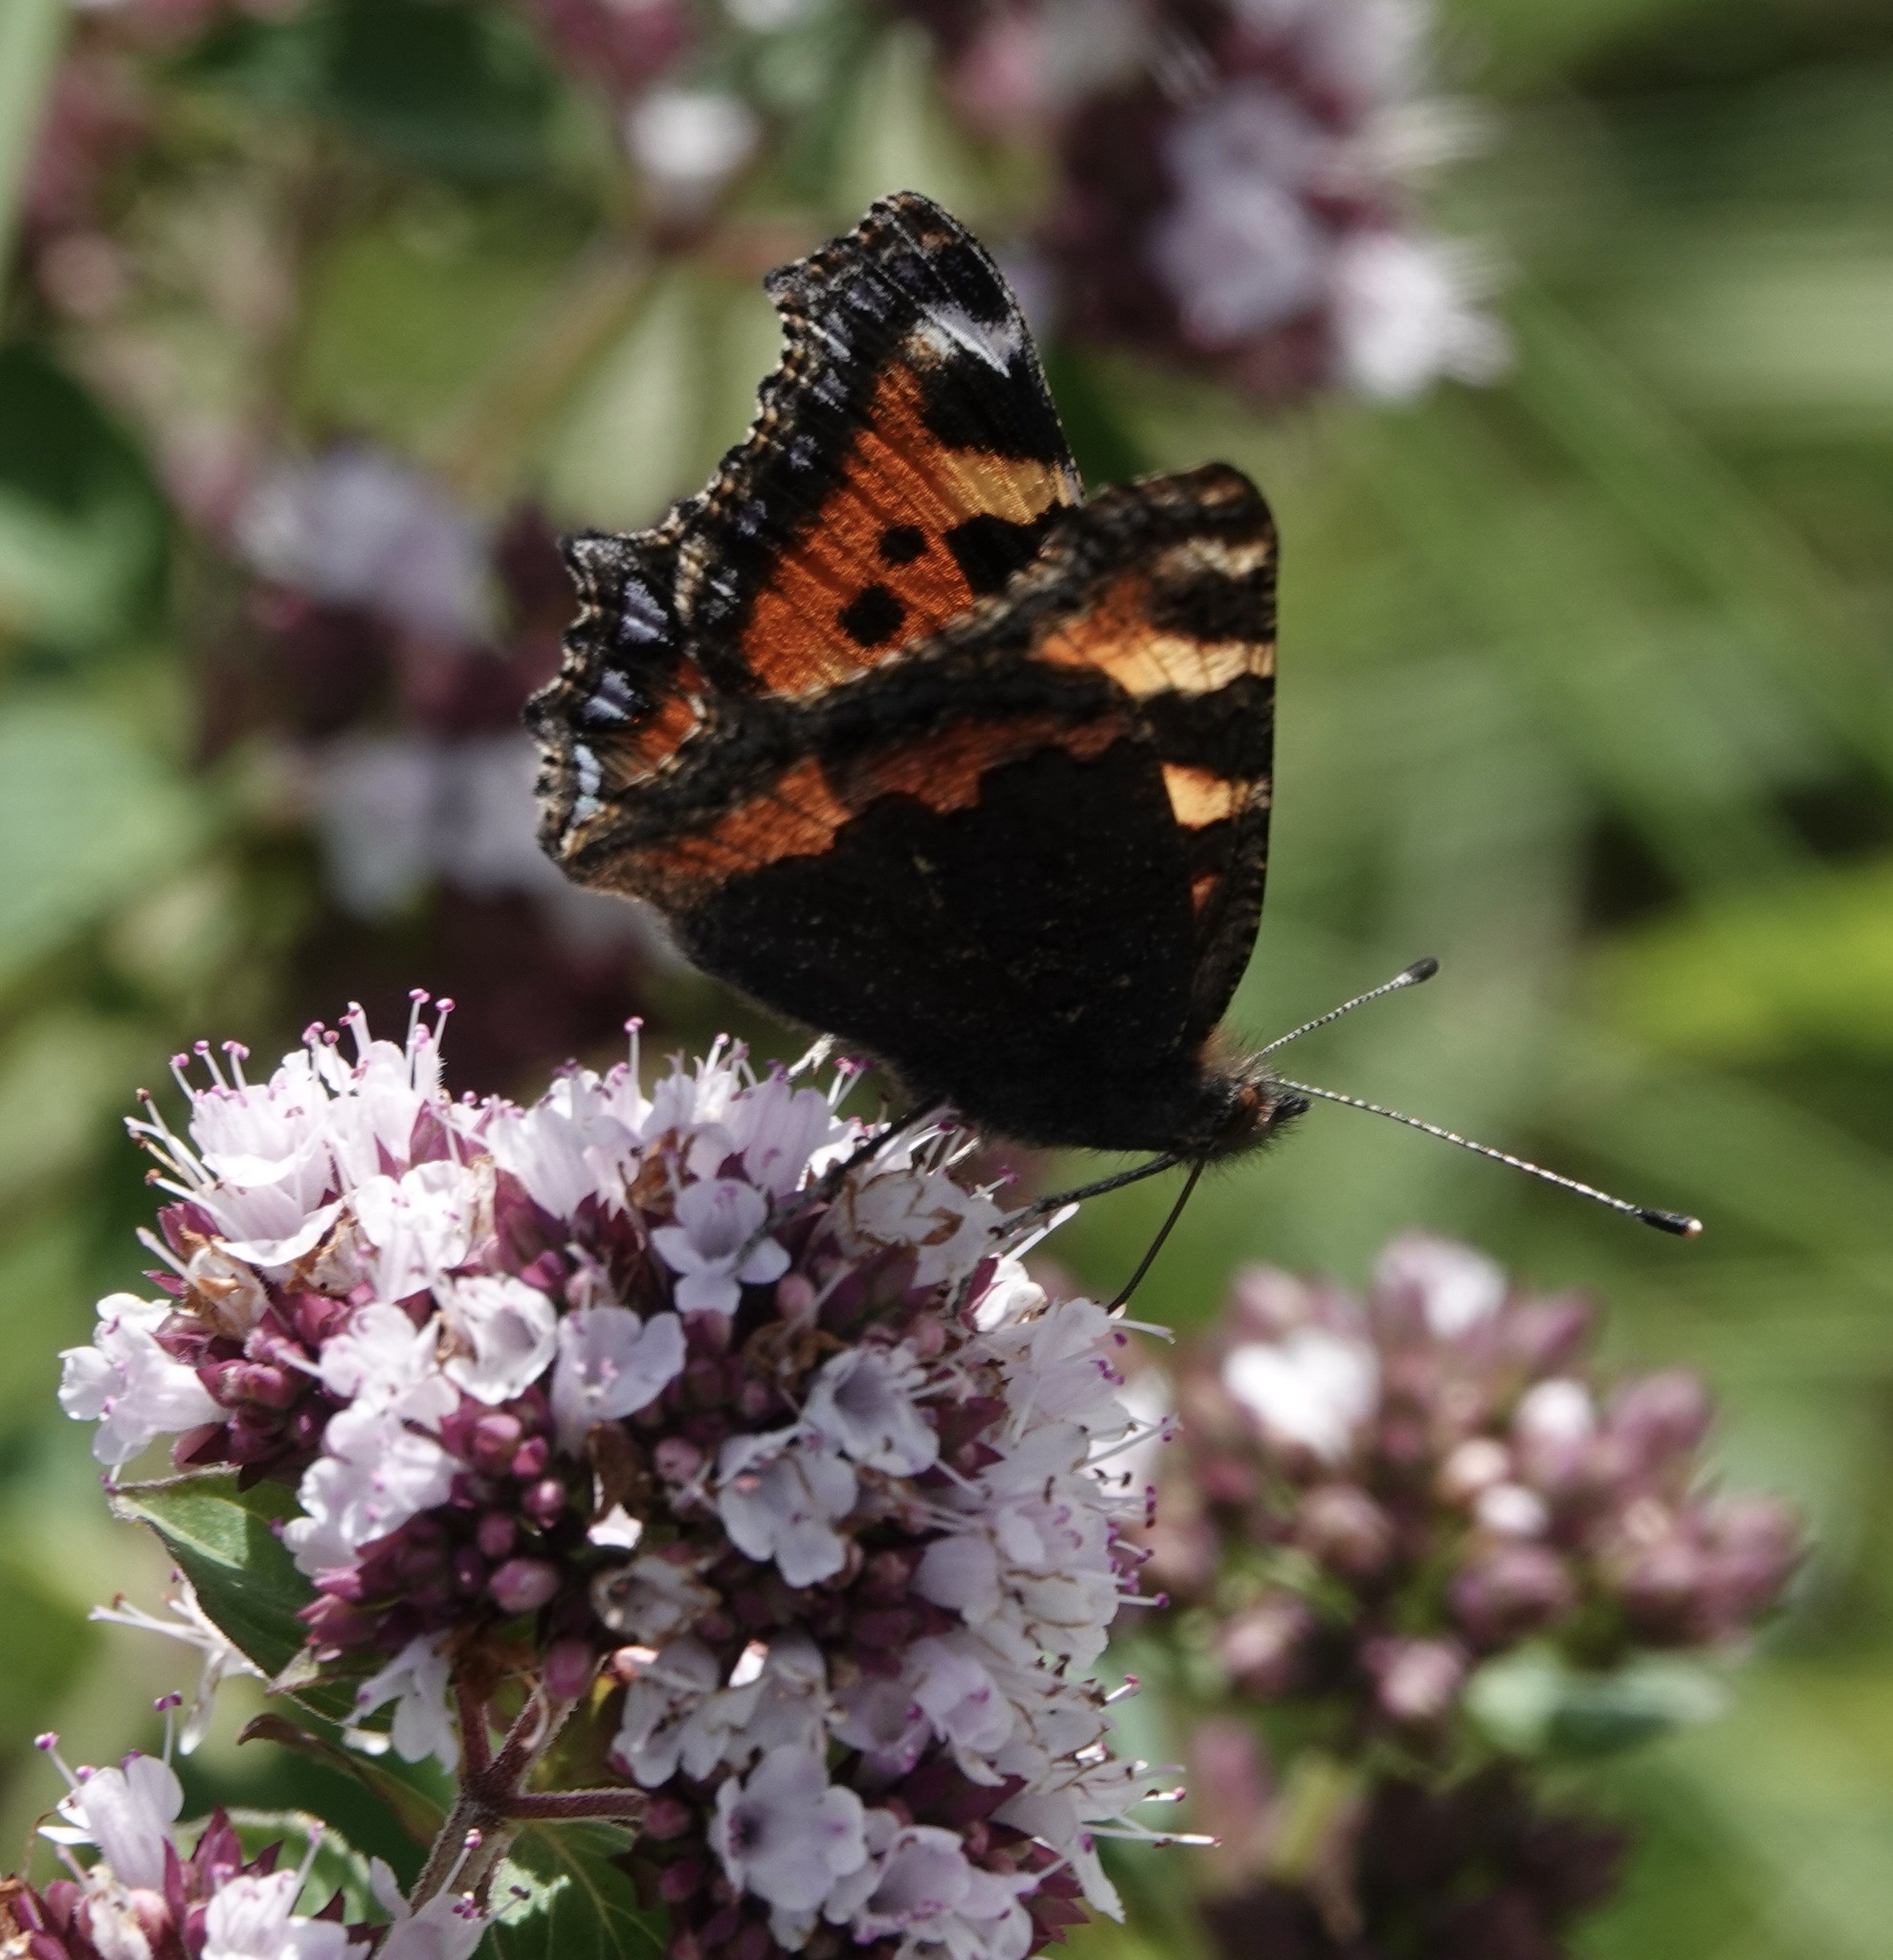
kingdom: Animalia
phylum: Arthropoda
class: Insecta
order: Lepidoptera
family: Nymphalidae
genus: Aglais
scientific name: Aglais urticae
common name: Small tortoiseshell
